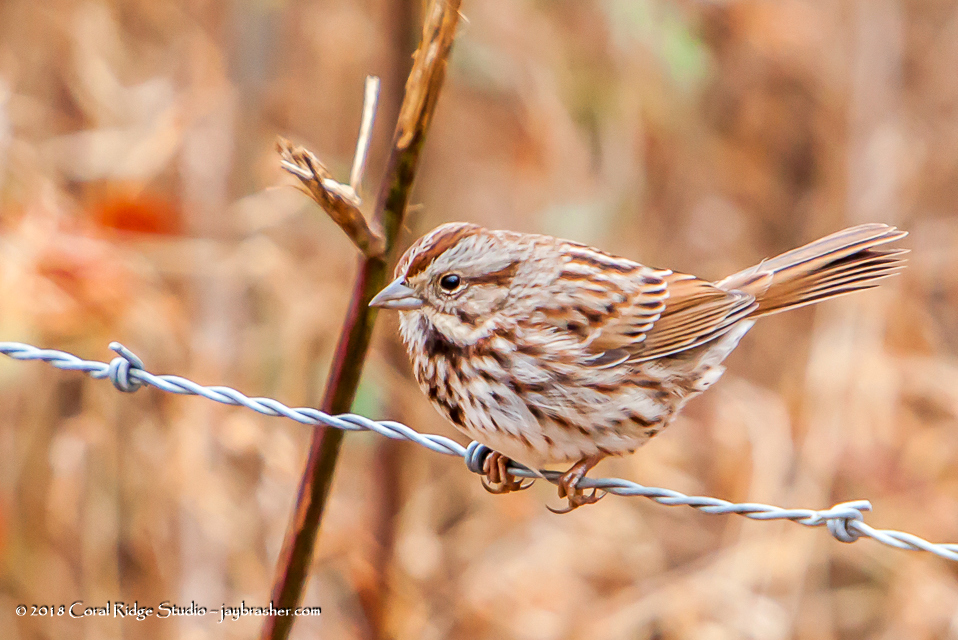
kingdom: Animalia
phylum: Chordata
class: Aves
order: Passeriformes
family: Passerellidae
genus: Melospiza
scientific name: Melospiza melodia
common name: Song sparrow
